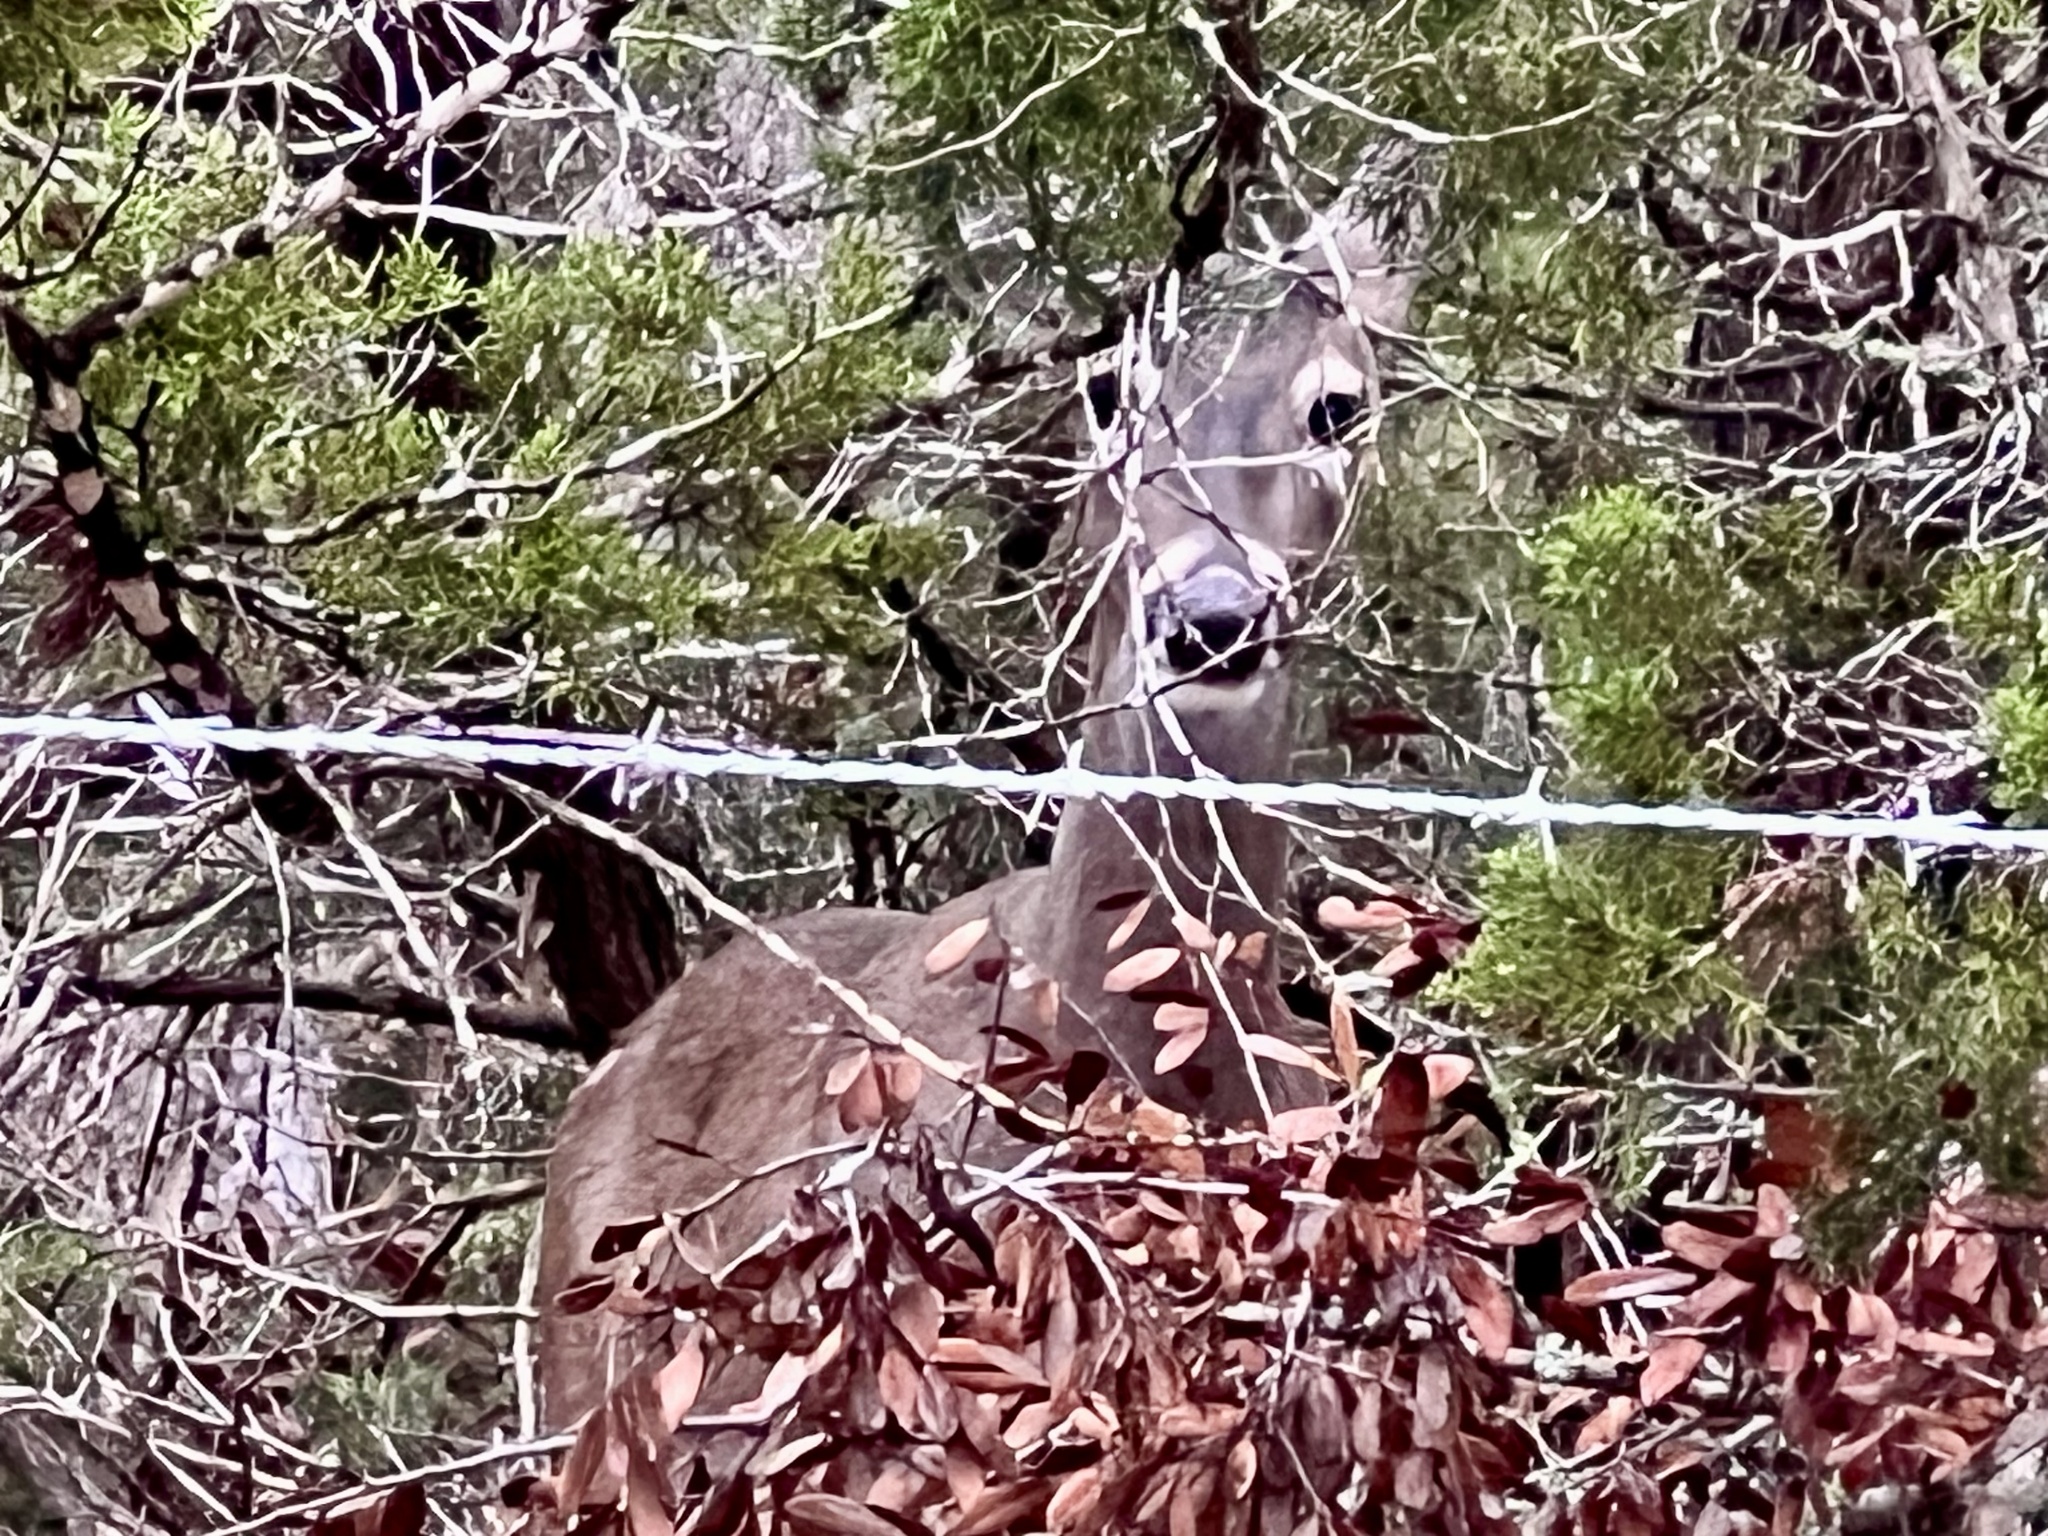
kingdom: Animalia
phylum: Chordata
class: Mammalia
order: Artiodactyla
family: Cervidae
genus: Odocoileus
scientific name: Odocoileus virginianus
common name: White-tailed deer
